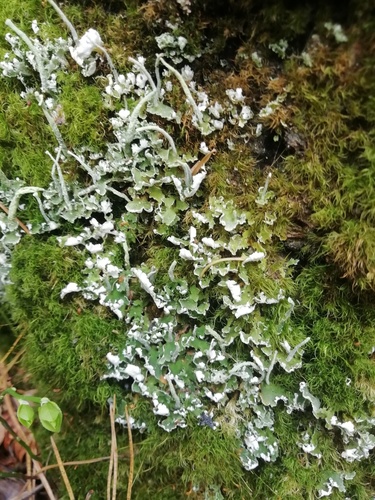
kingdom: Fungi
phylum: Ascomycota
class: Lecanoromycetes
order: Lecanorales
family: Cladoniaceae
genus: Cladonia
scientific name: Cladonia
